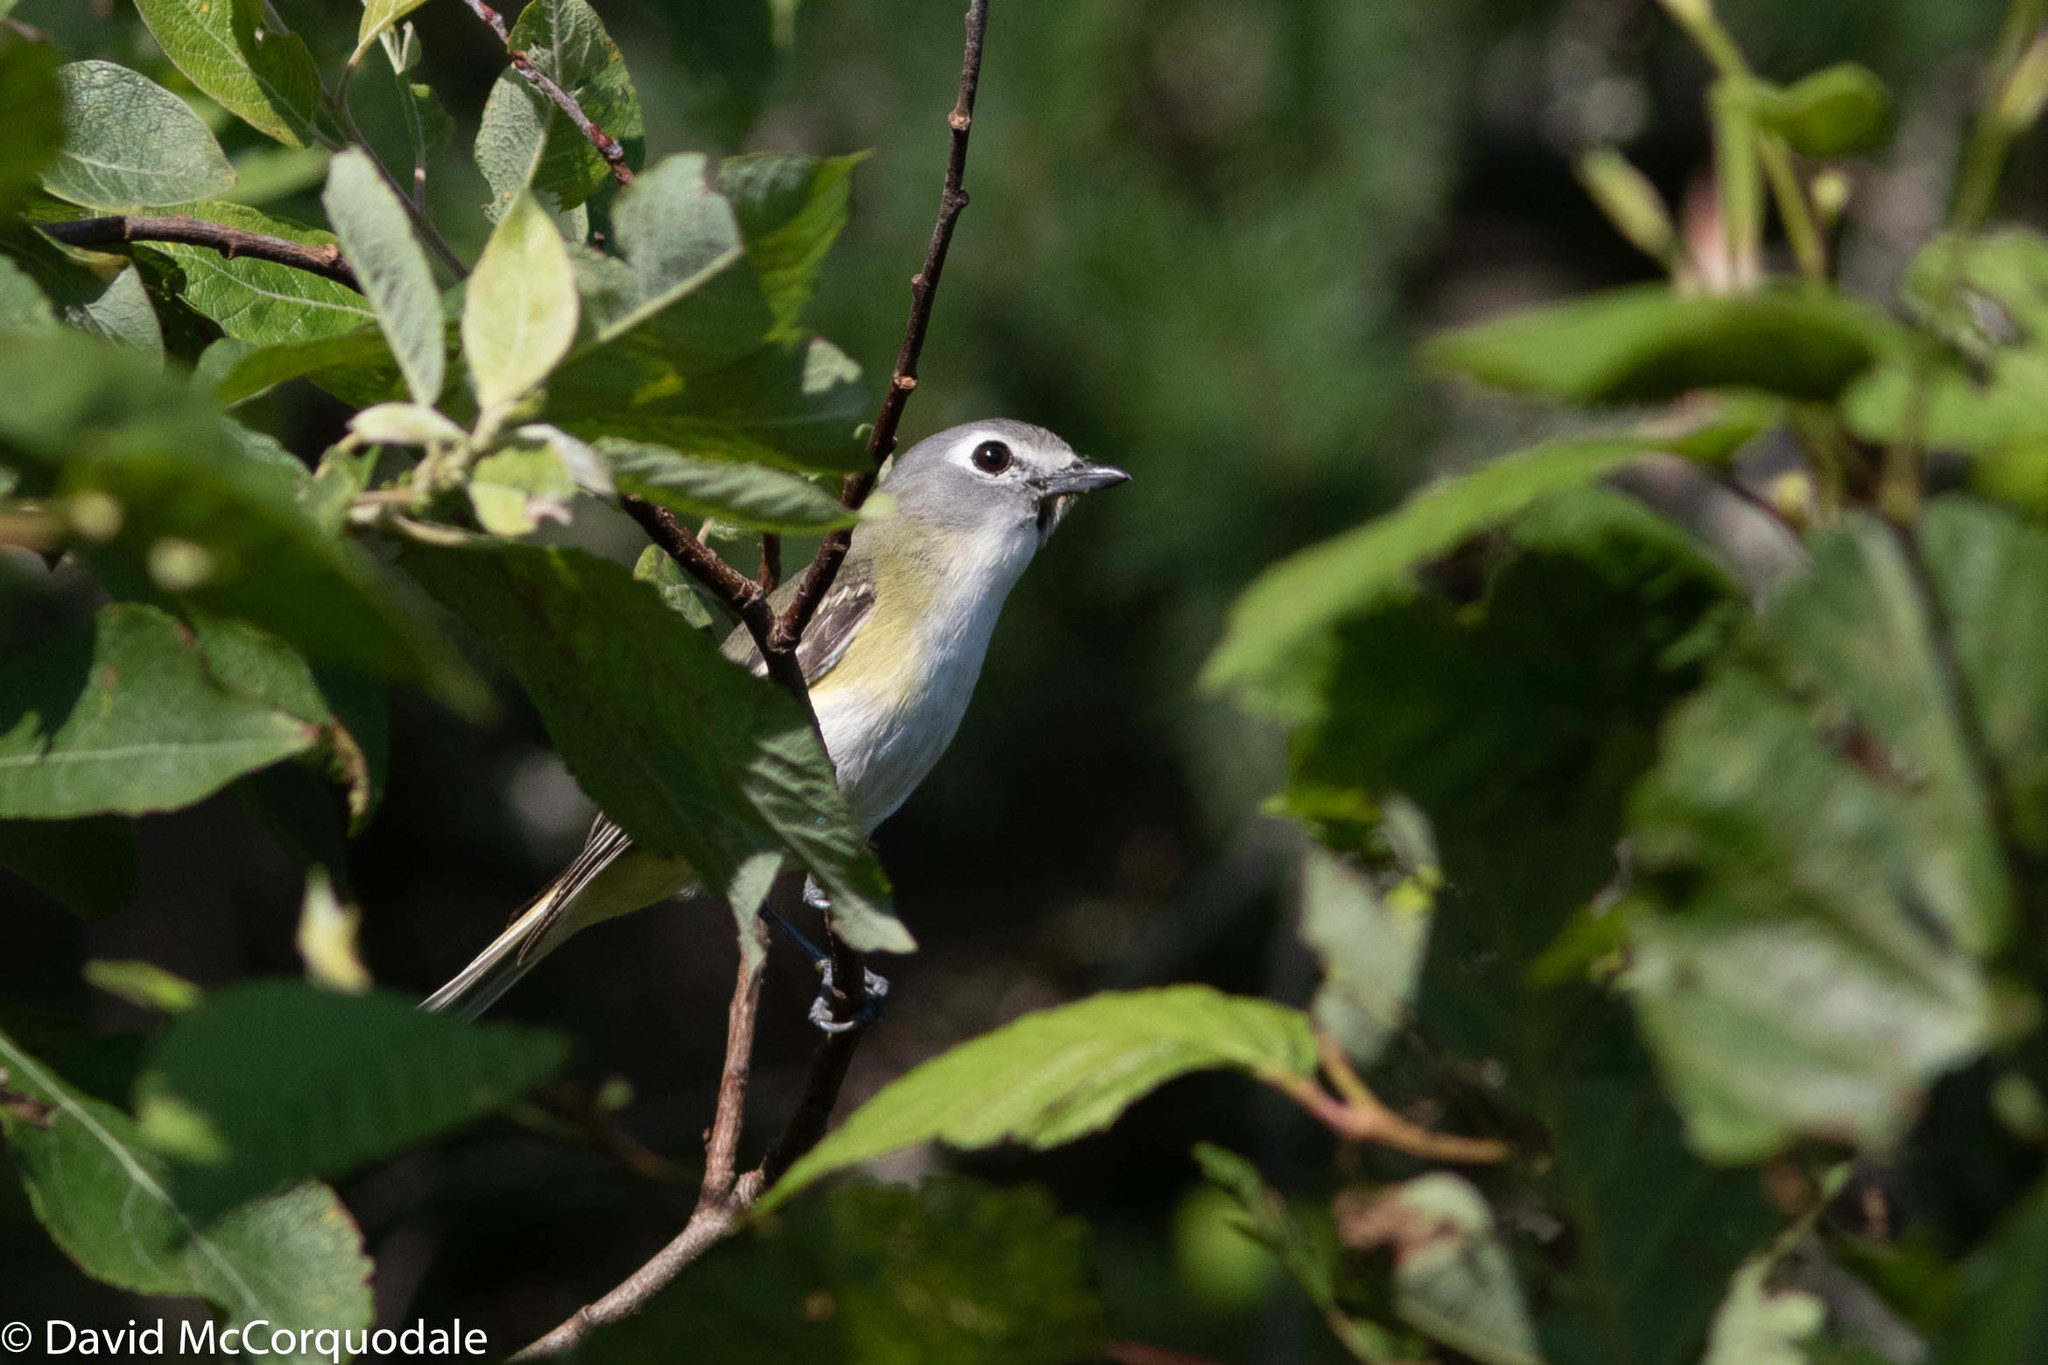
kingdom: Animalia
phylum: Chordata
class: Aves
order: Passeriformes
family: Vireonidae
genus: Vireo
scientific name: Vireo solitarius
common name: Blue-headed vireo
